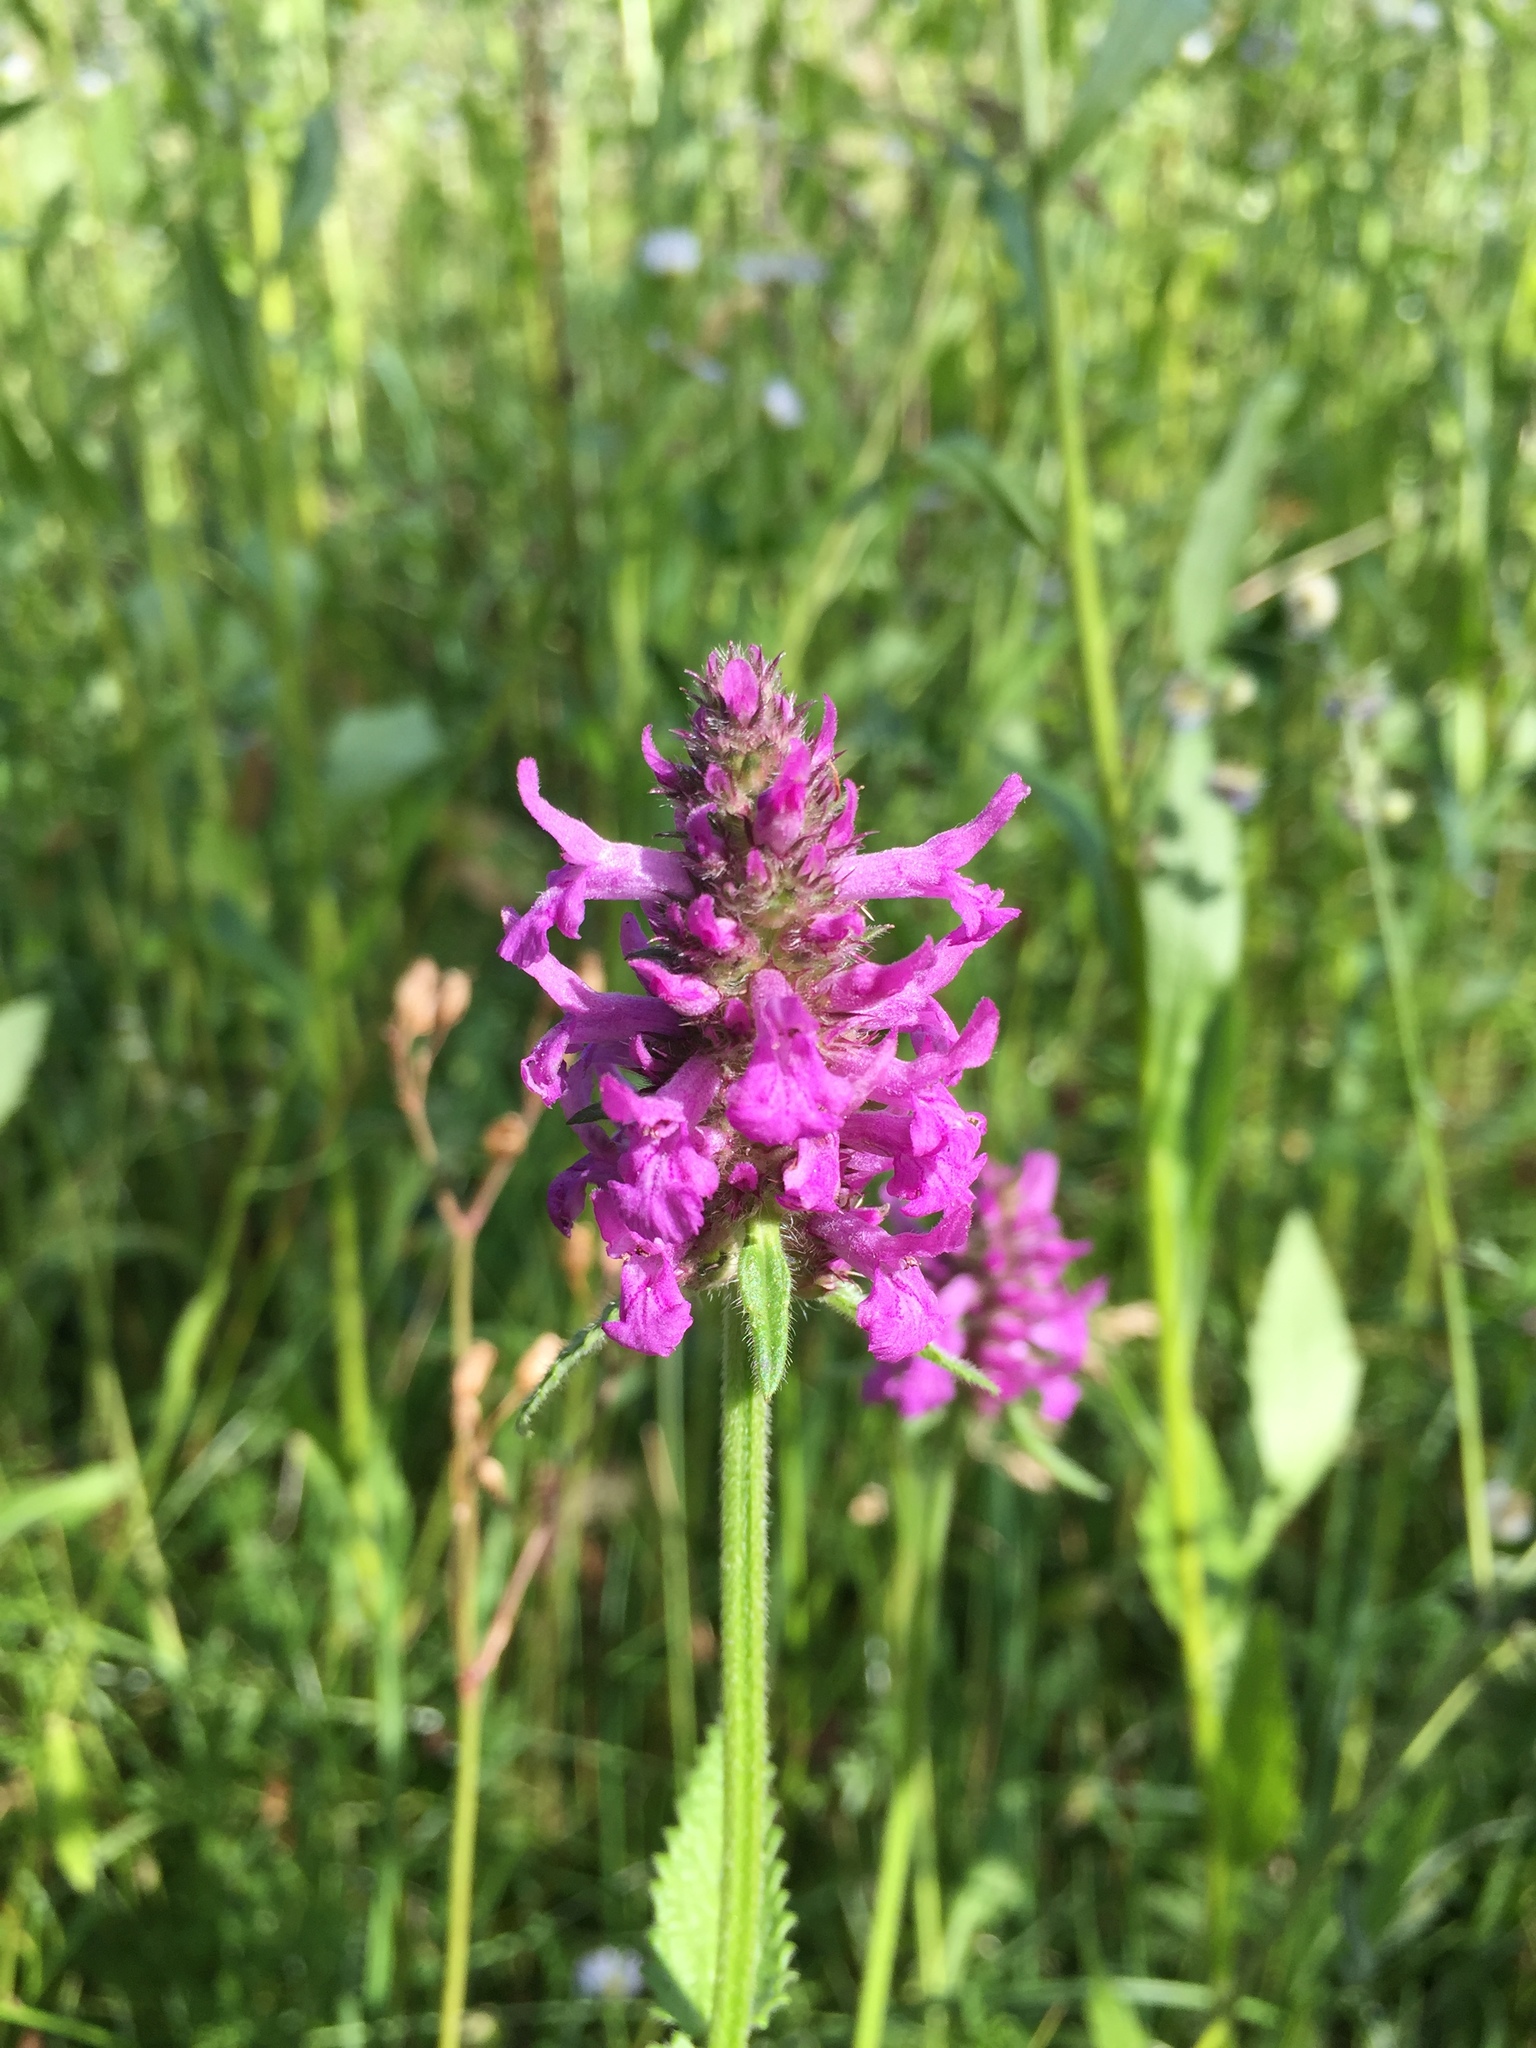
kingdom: Plantae
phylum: Tracheophyta
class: Magnoliopsida
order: Lamiales
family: Lamiaceae
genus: Betonica
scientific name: Betonica officinalis
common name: Bishop's-wort
